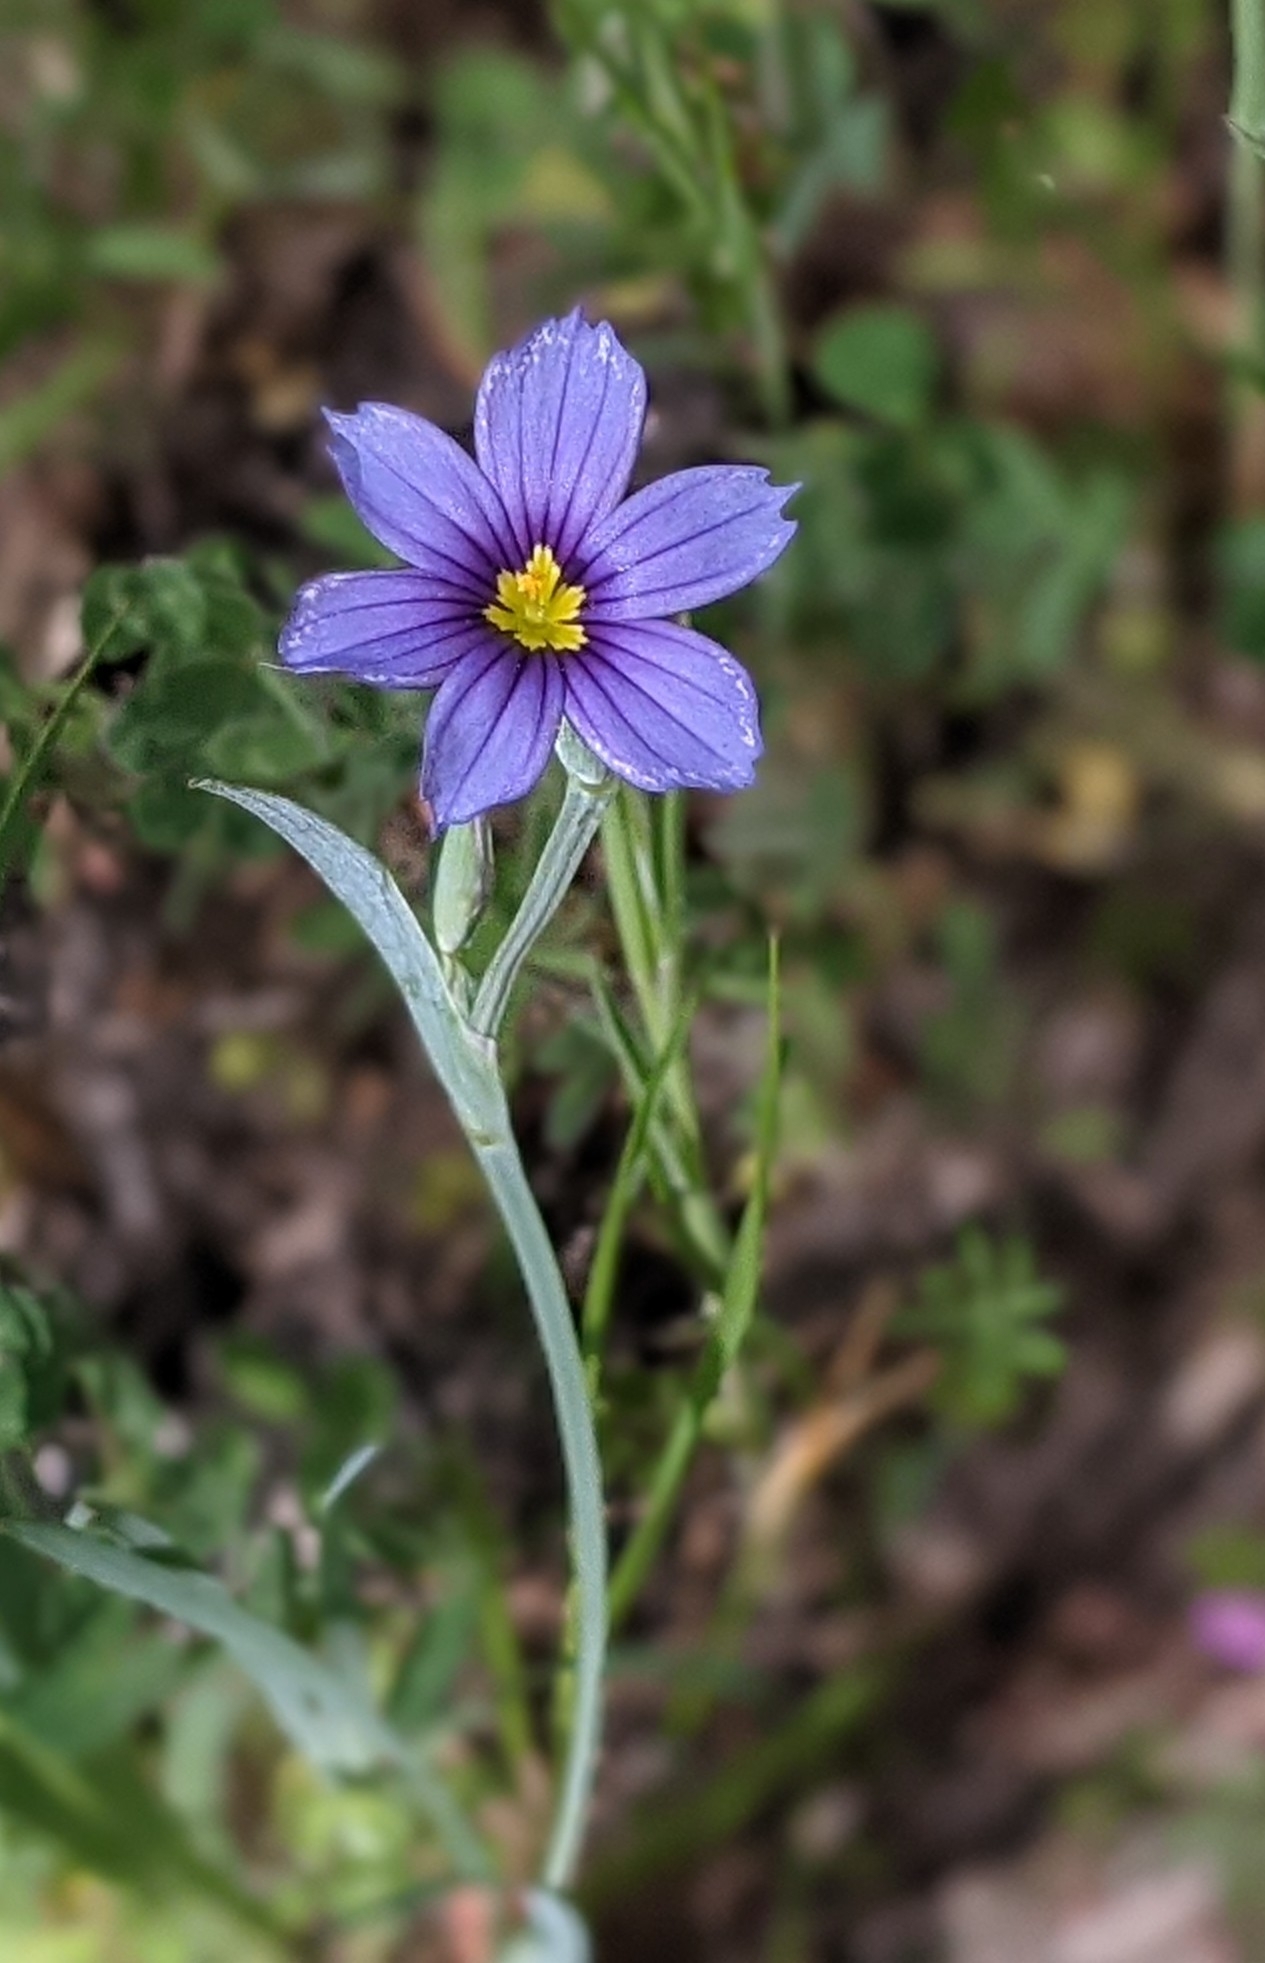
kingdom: Plantae
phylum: Tracheophyta
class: Liliopsida
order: Asparagales
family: Iridaceae
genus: Sisyrinchium
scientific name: Sisyrinchium bellum
